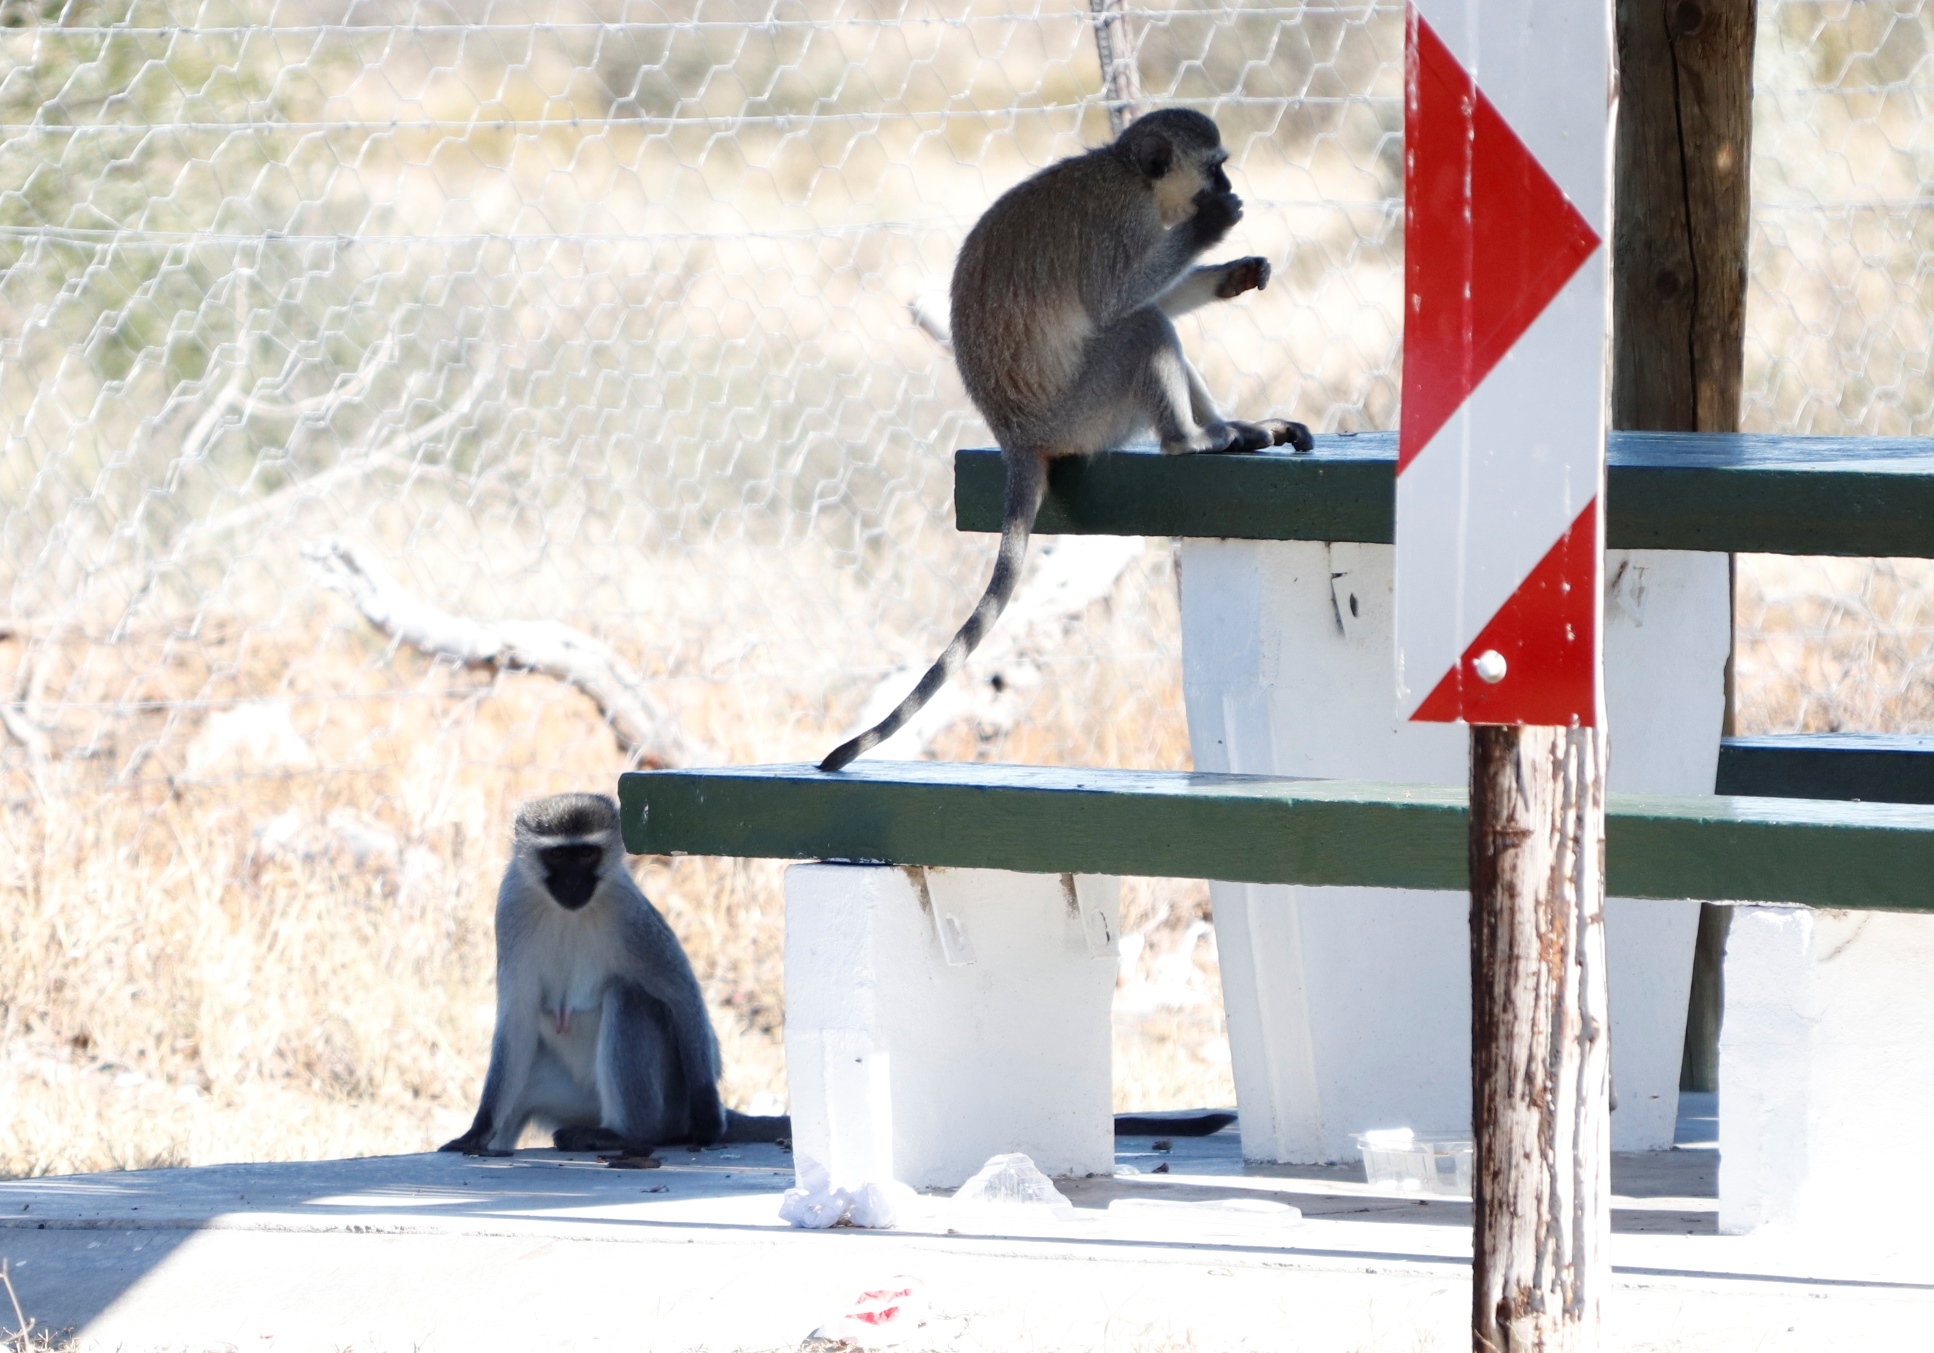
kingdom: Animalia
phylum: Chordata
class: Mammalia
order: Primates
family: Cercopithecidae
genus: Chlorocebus
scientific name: Chlorocebus pygerythrus
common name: Vervet monkey
